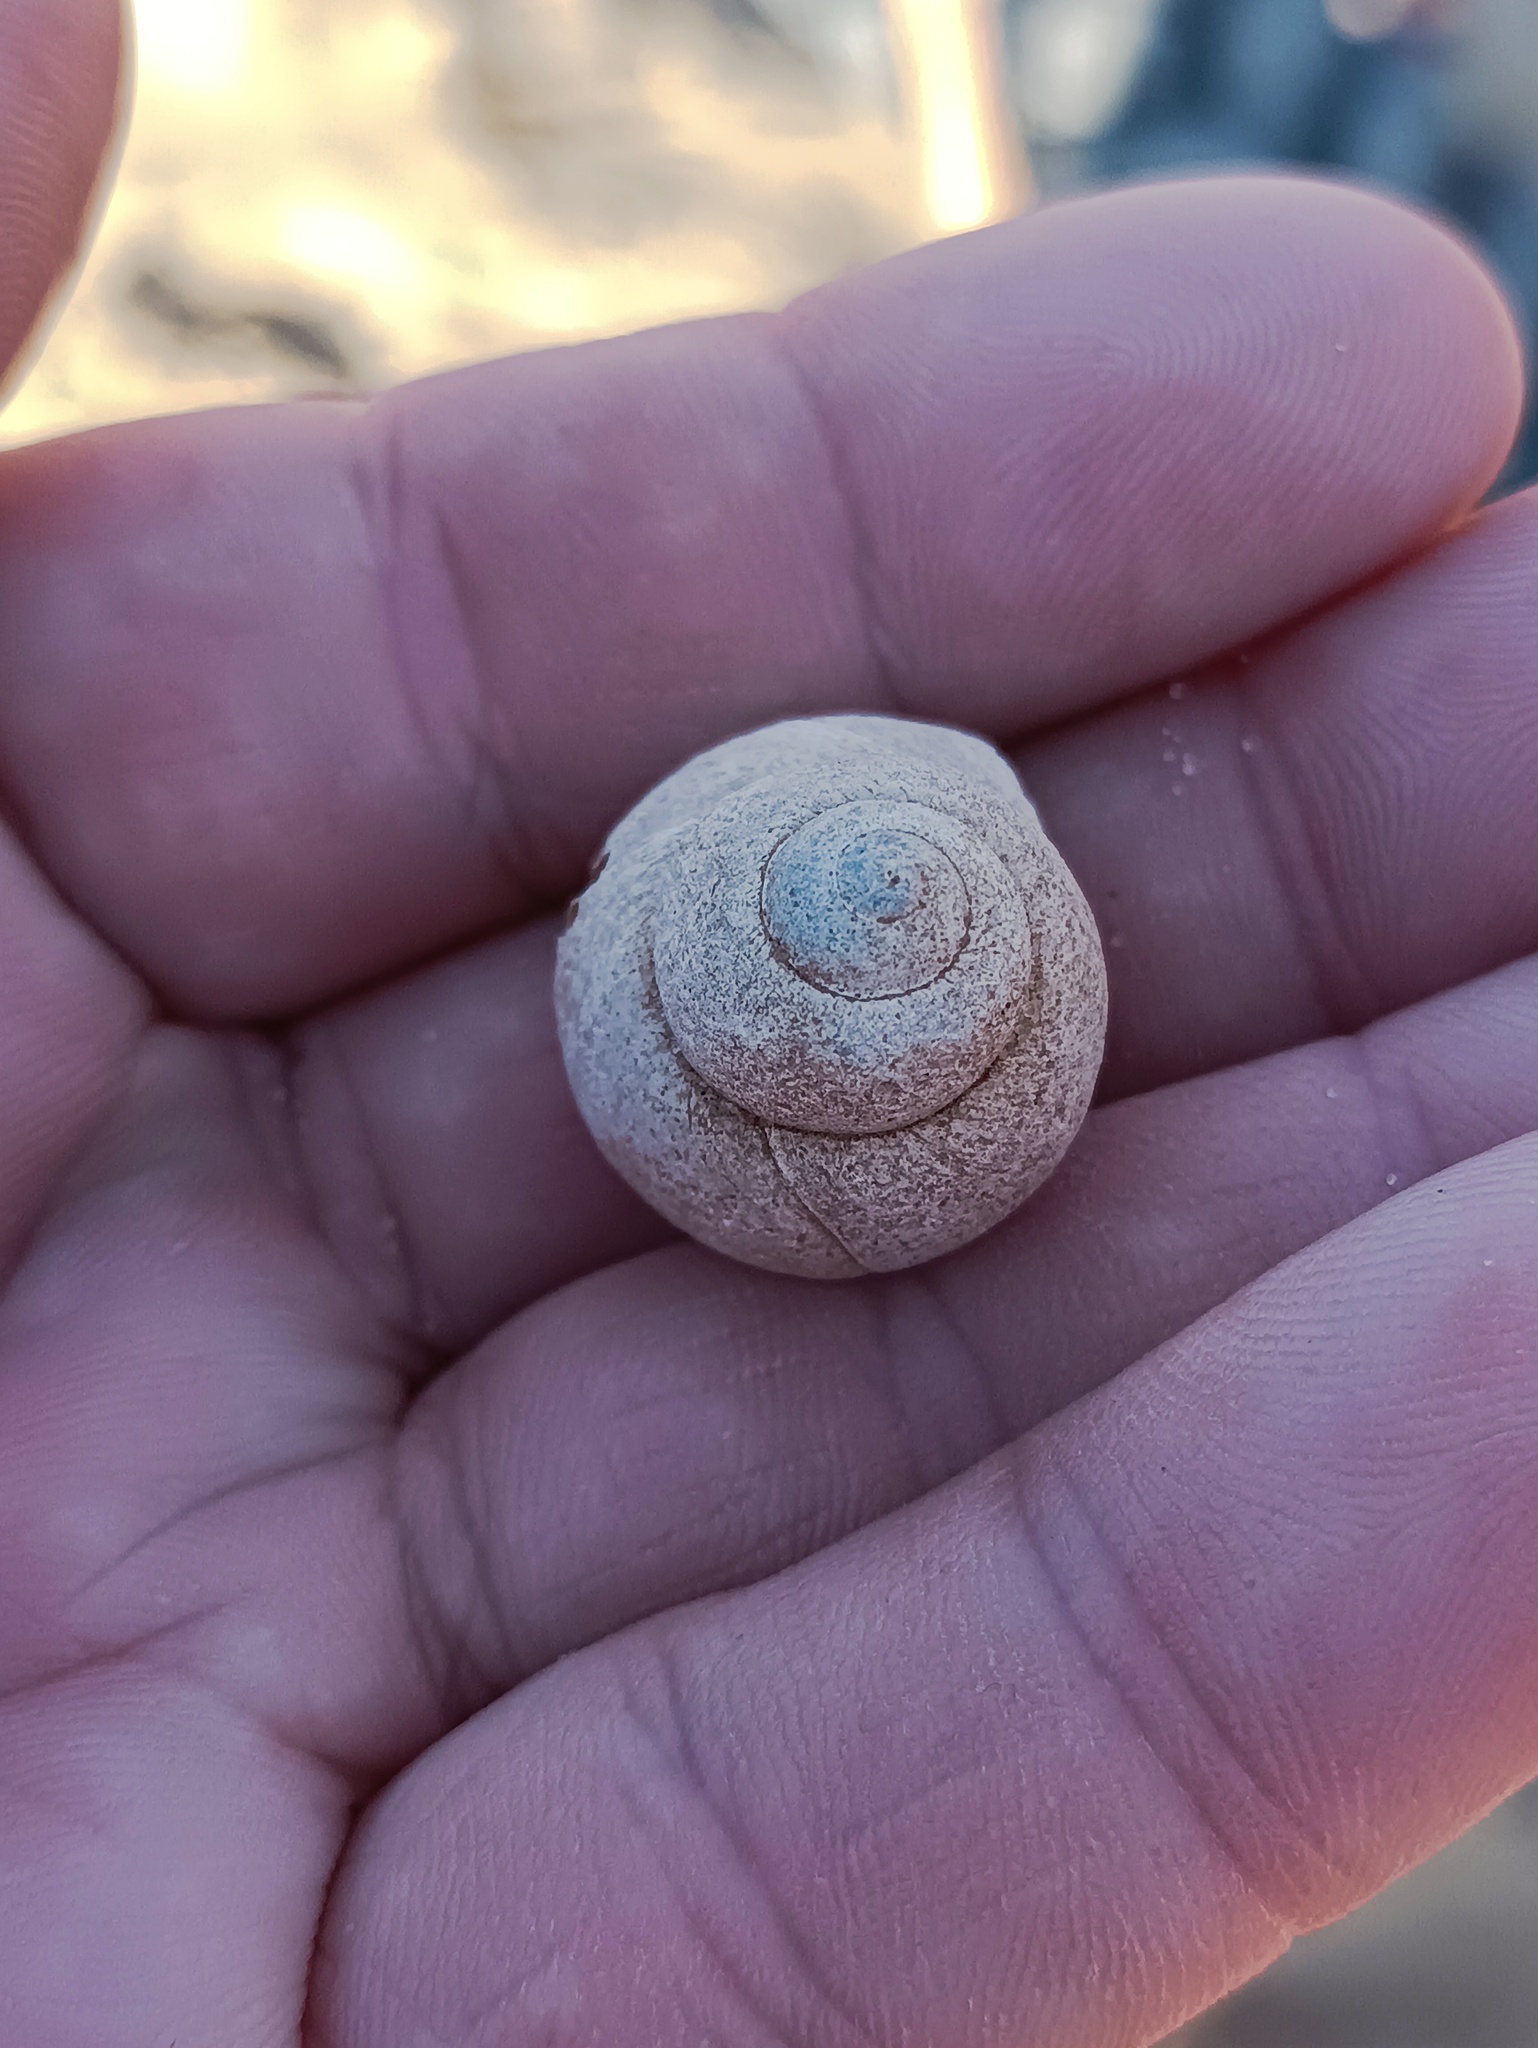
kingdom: Animalia
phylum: Mollusca
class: Gastropoda
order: Architaenioglossa
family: Viviparidae
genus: Viviparus
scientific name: Viviparus viviparus
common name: River snail
